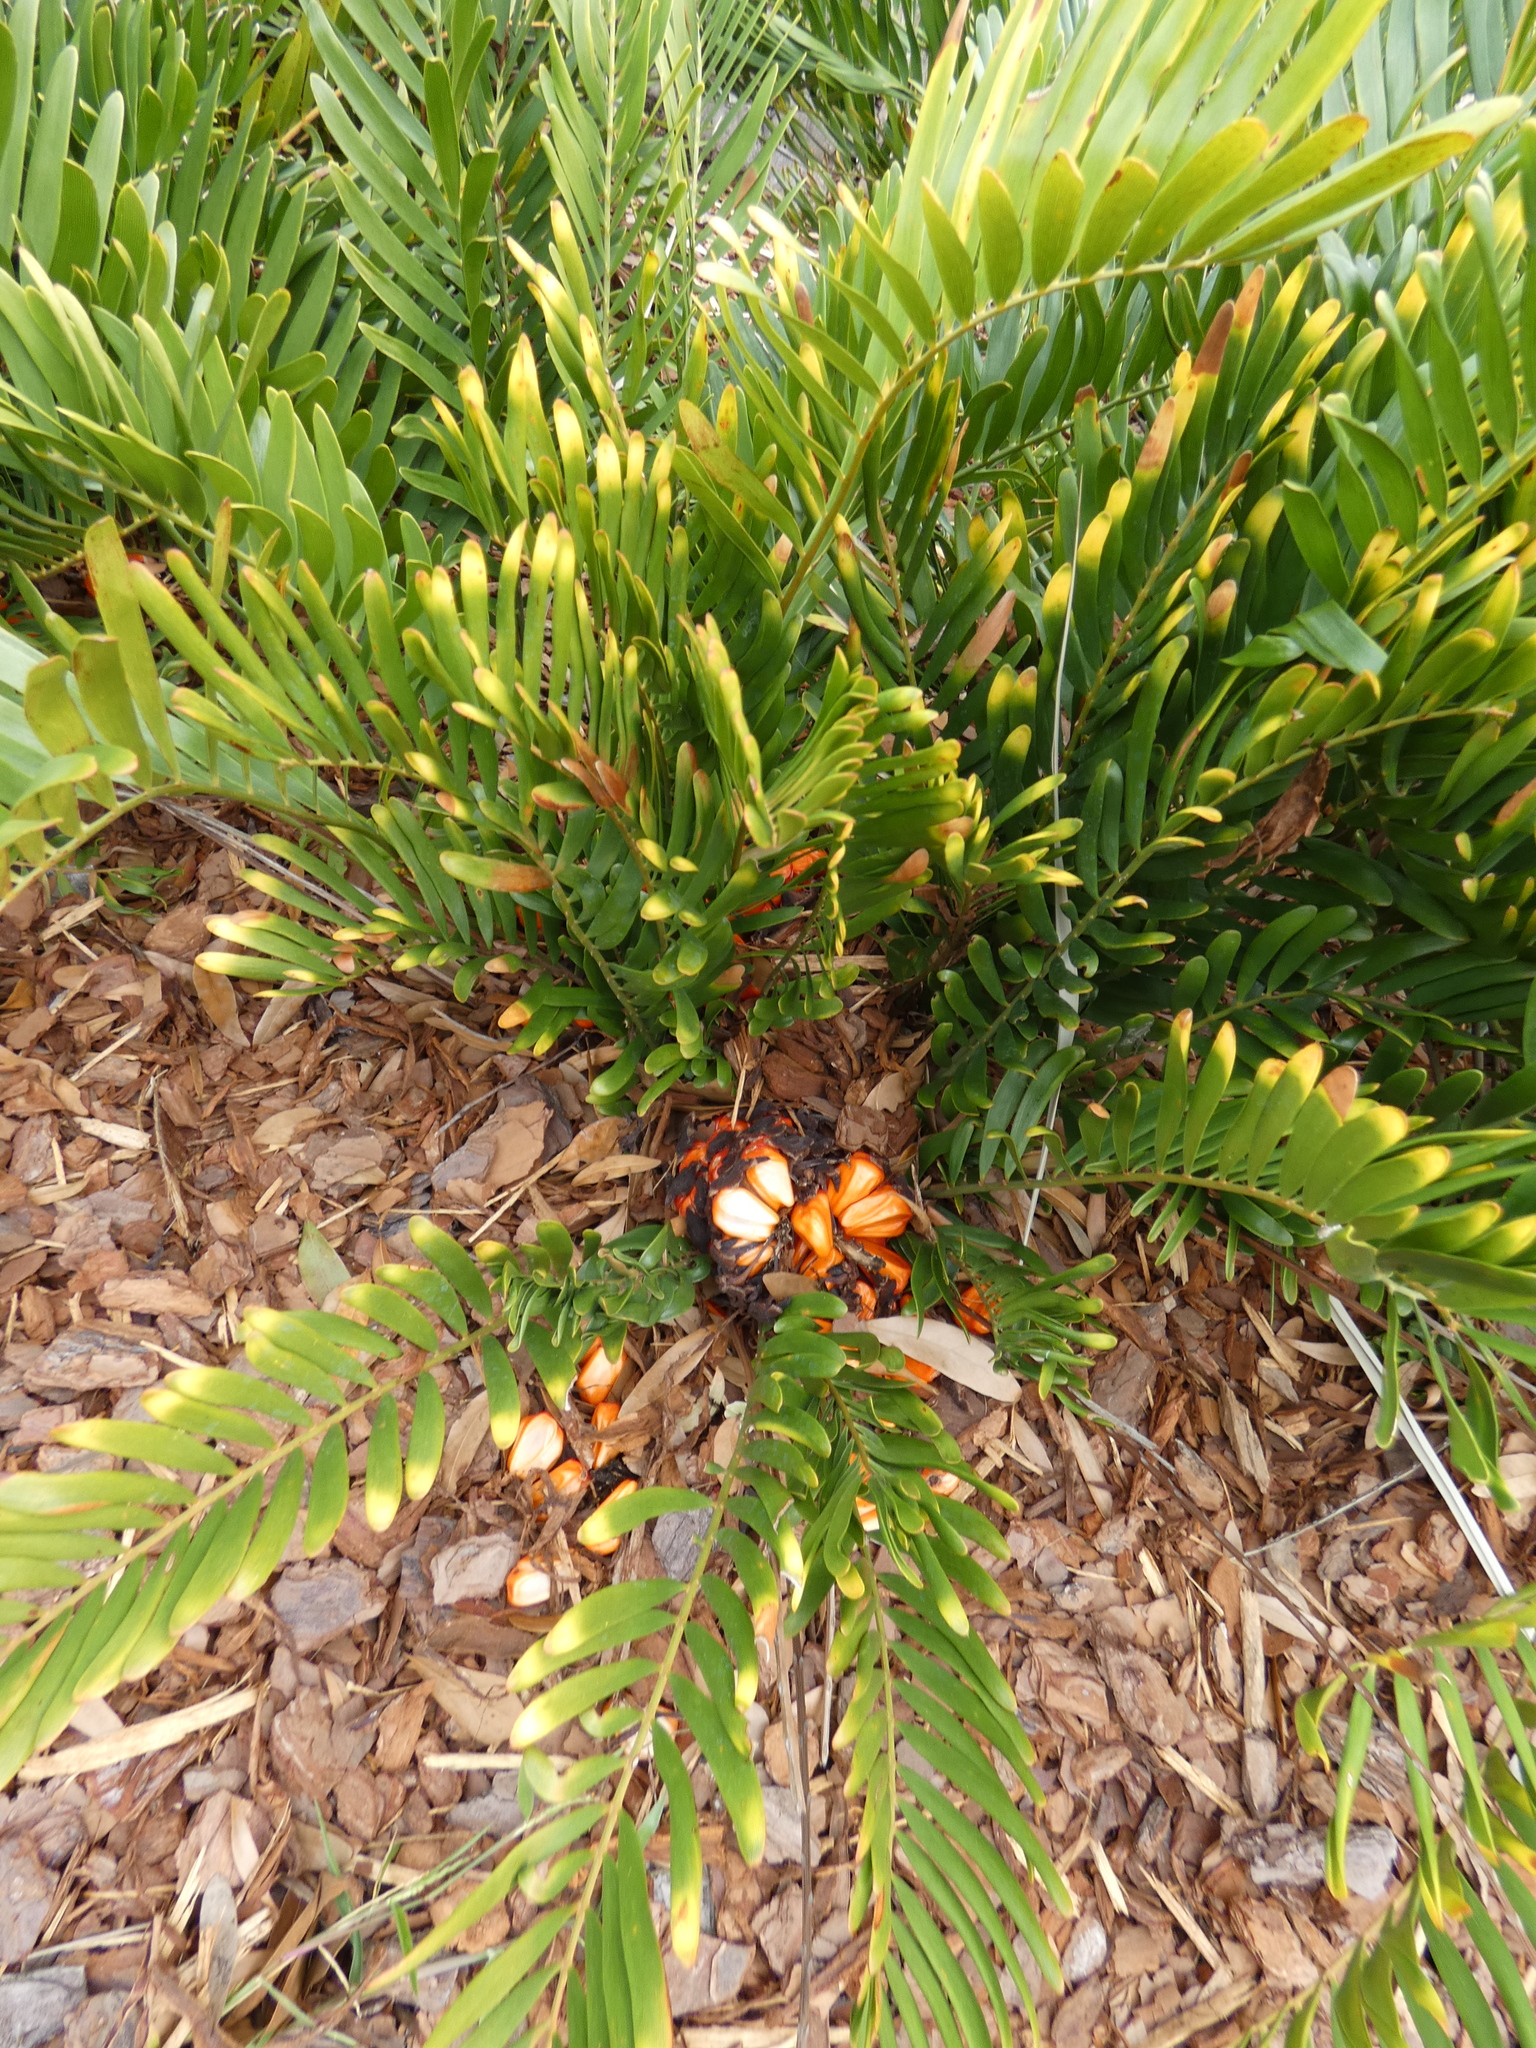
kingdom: Plantae
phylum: Tracheophyta
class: Cycadopsida
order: Cycadales
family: Zamiaceae
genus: Zamia
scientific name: Zamia integrifolia
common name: Florida arrowroot
